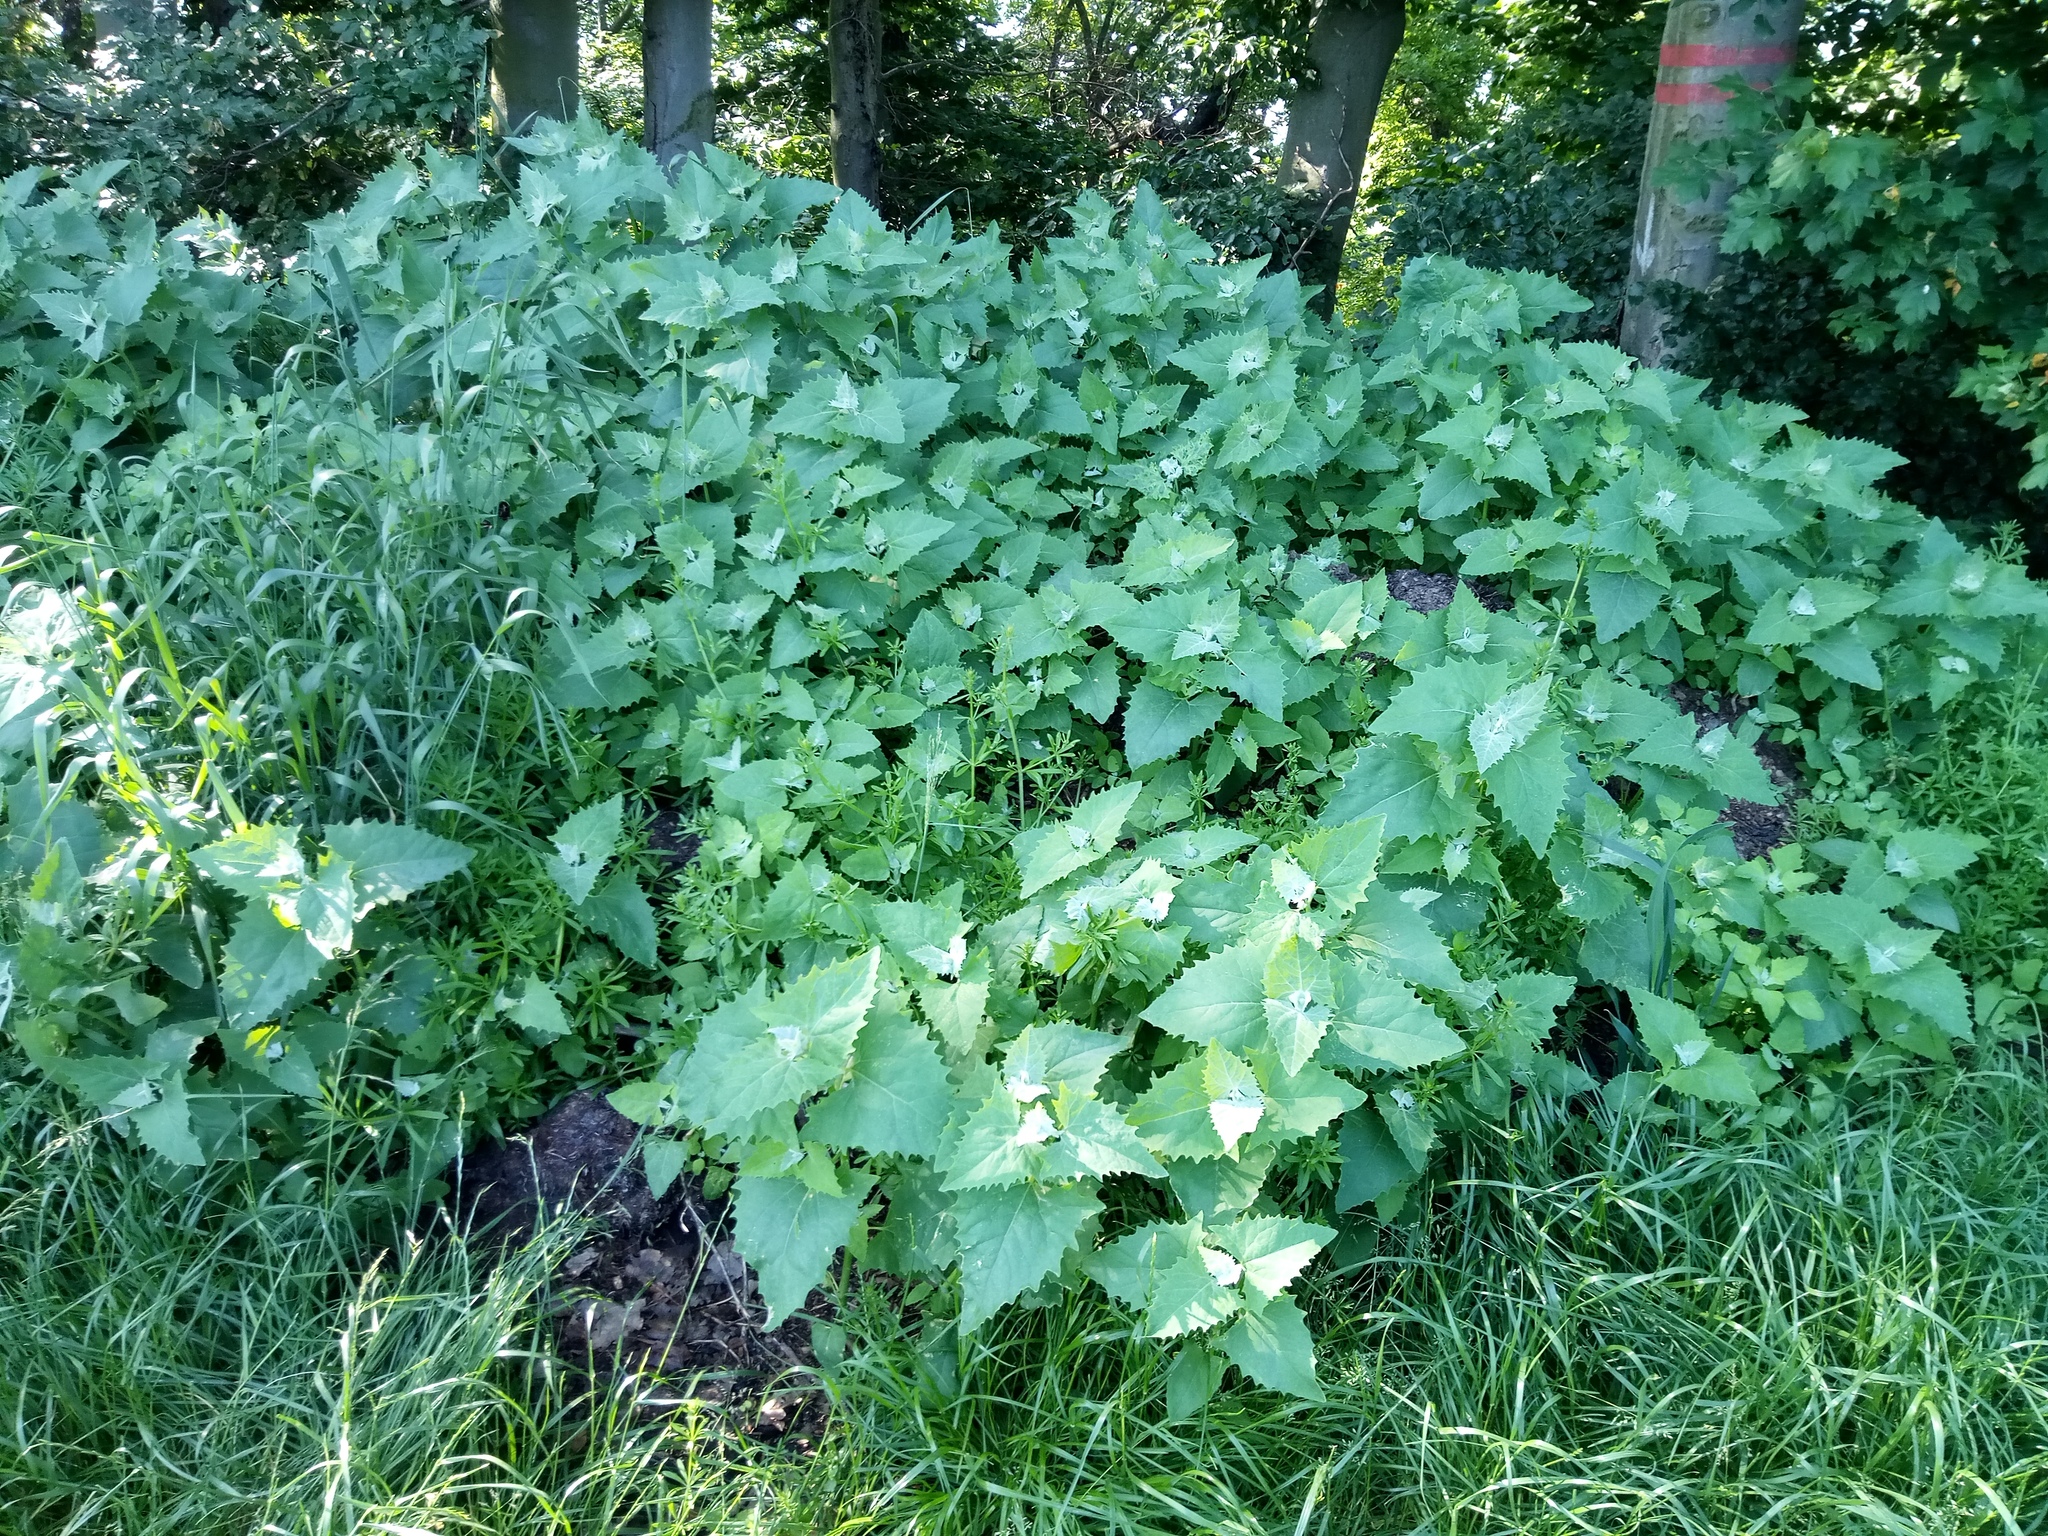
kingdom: Plantae
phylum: Tracheophyta
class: Magnoliopsida
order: Caryophyllales
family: Amaranthaceae
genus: Atriplex
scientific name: Atriplex sagittata
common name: Purple orache
